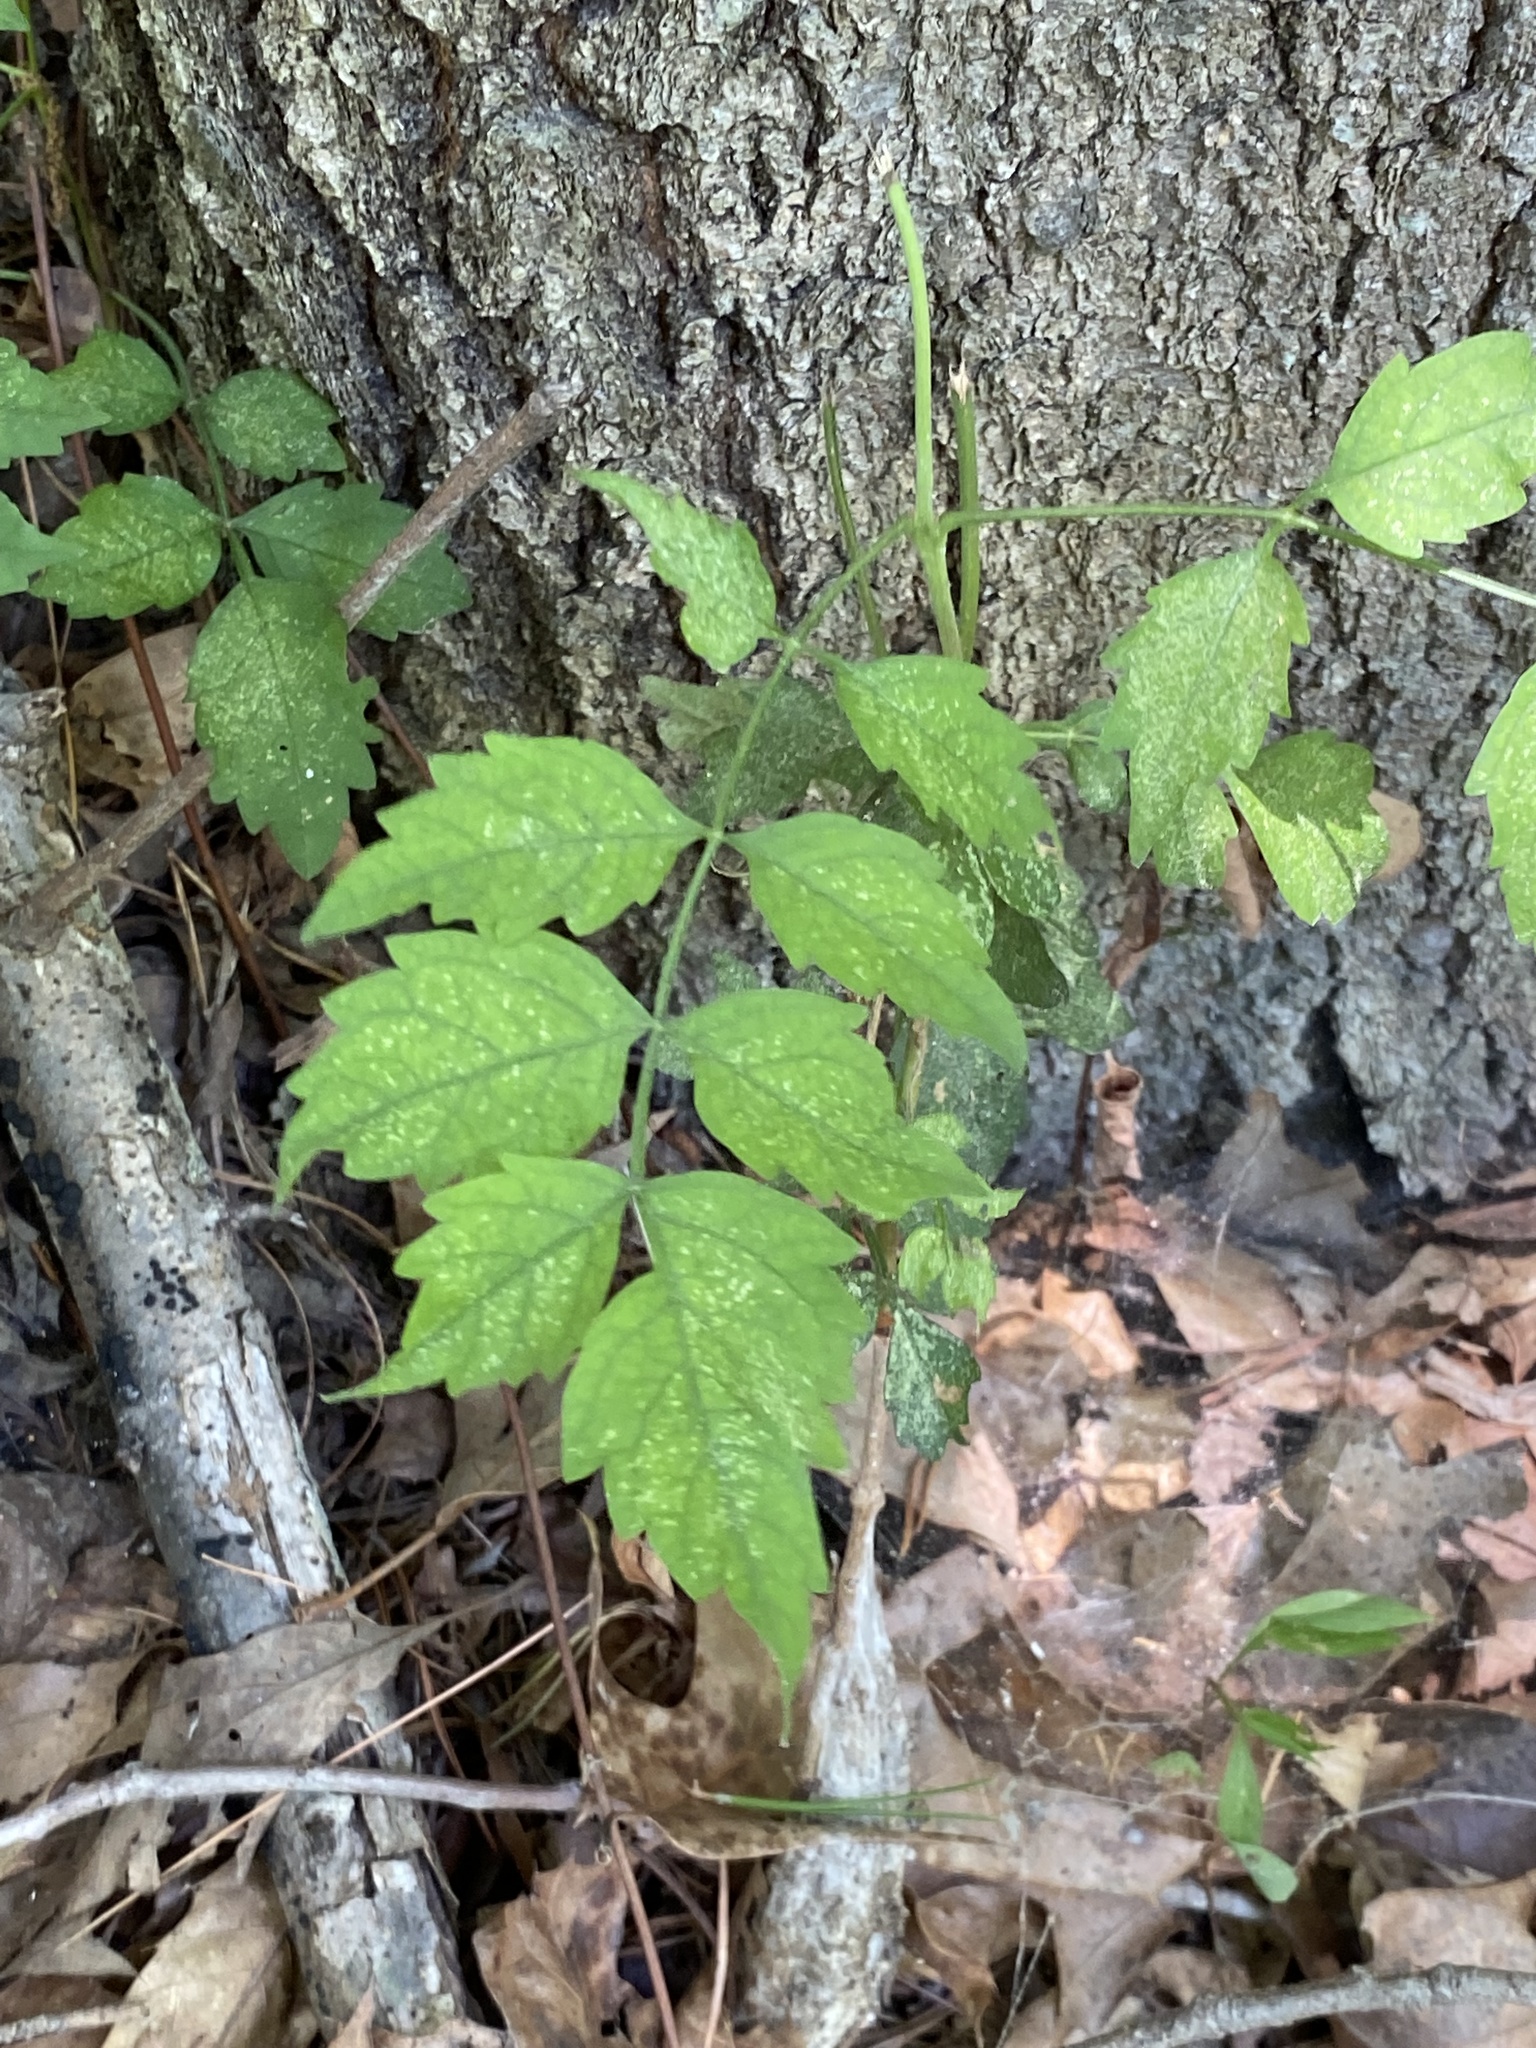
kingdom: Plantae
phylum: Tracheophyta
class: Magnoliopsida
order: Lamiales
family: Bignoniaceae
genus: Campsis
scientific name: Campsis radicans
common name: Trumpet-creeper
